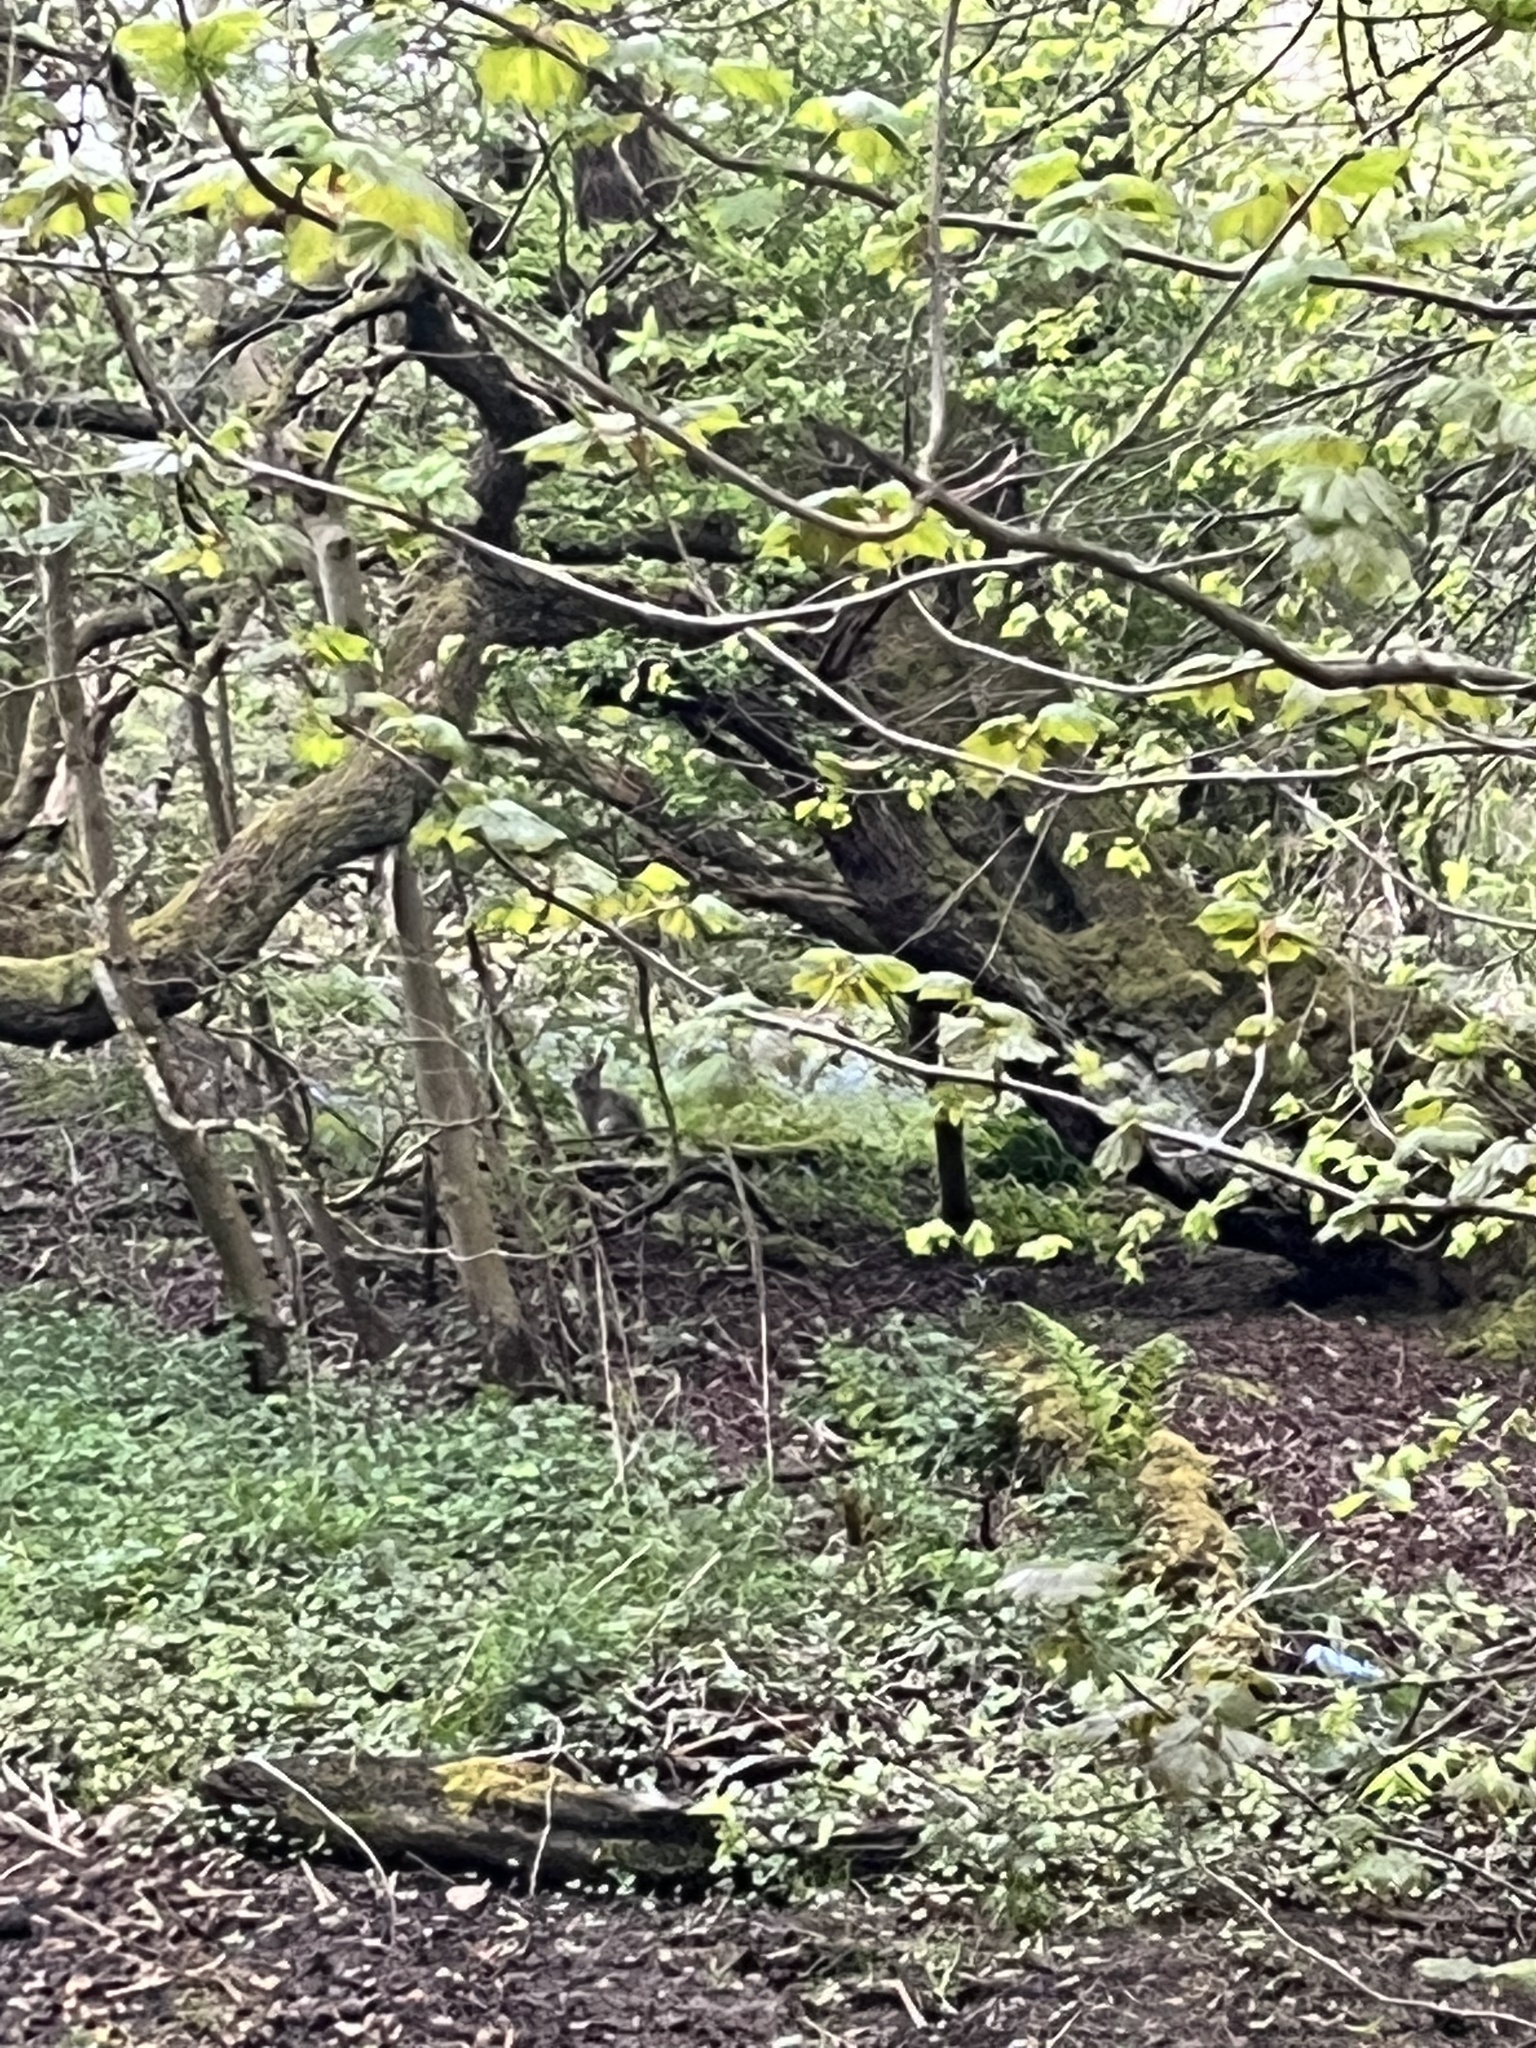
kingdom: Animalia
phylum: Chordata
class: Mammalia
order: Lagomorpha
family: Leporidae
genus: Oryctolagus
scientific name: Oryctolagus cuniculus
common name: European rabbit
